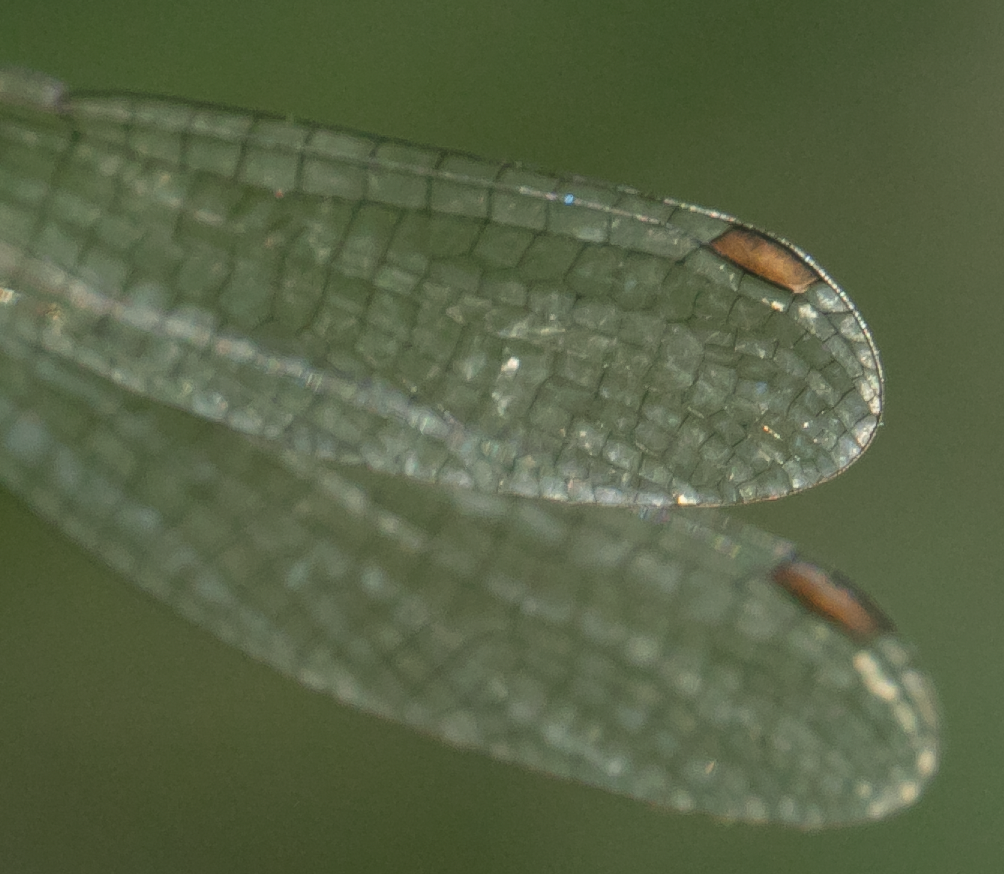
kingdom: Animalia
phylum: Arthropoda
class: Insecta
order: Odonata
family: Lestidae
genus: Chalcolestes
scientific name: Chalcolestes parvidens
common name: Eastern willow spreadwing
